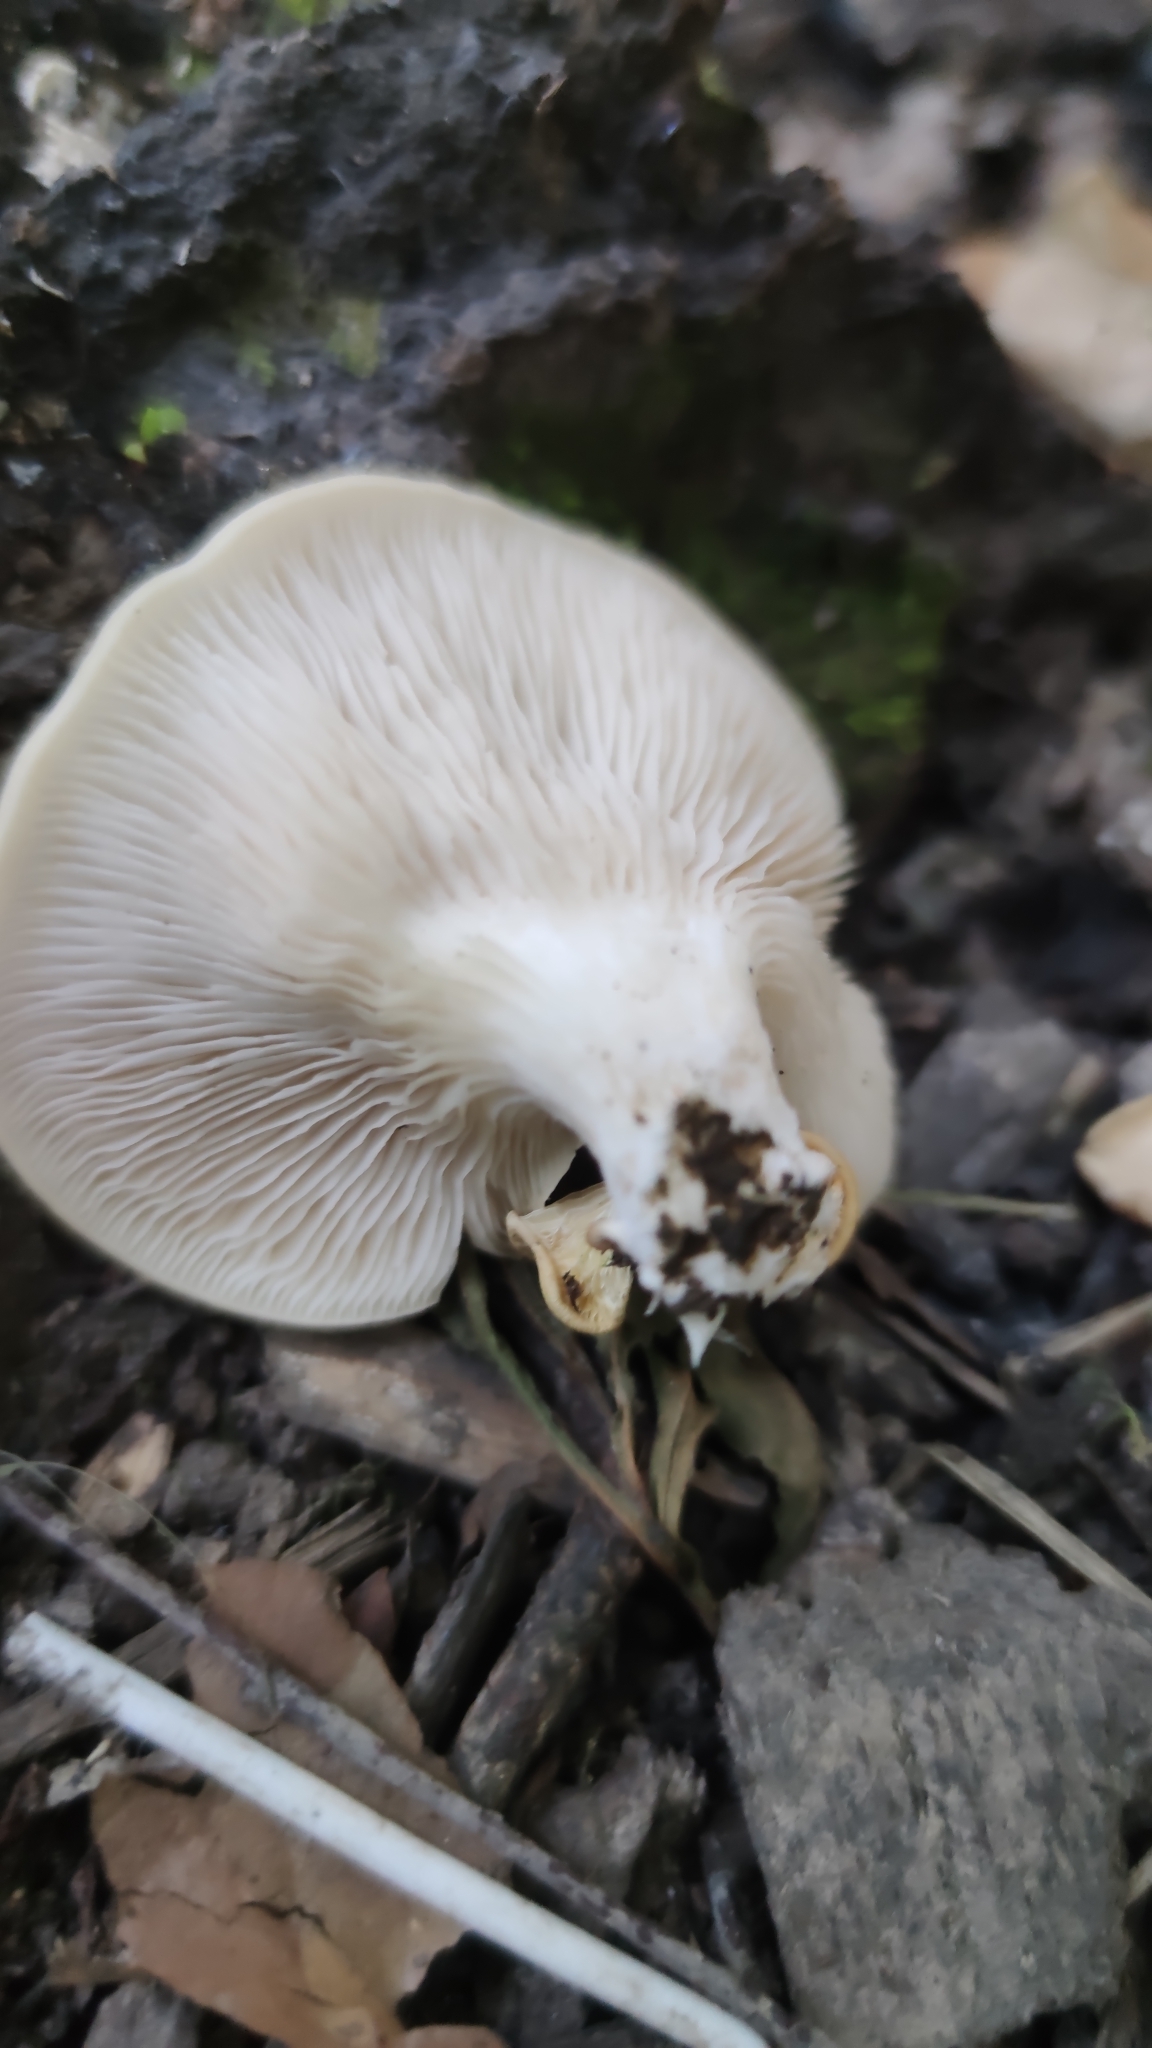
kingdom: Fungi
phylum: Basidiomycota
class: Agaricomycetes
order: Agaricales
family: Pleurotaceae
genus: Pleurotus
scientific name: Pleurotus pulmonarius
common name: Pale oyster
